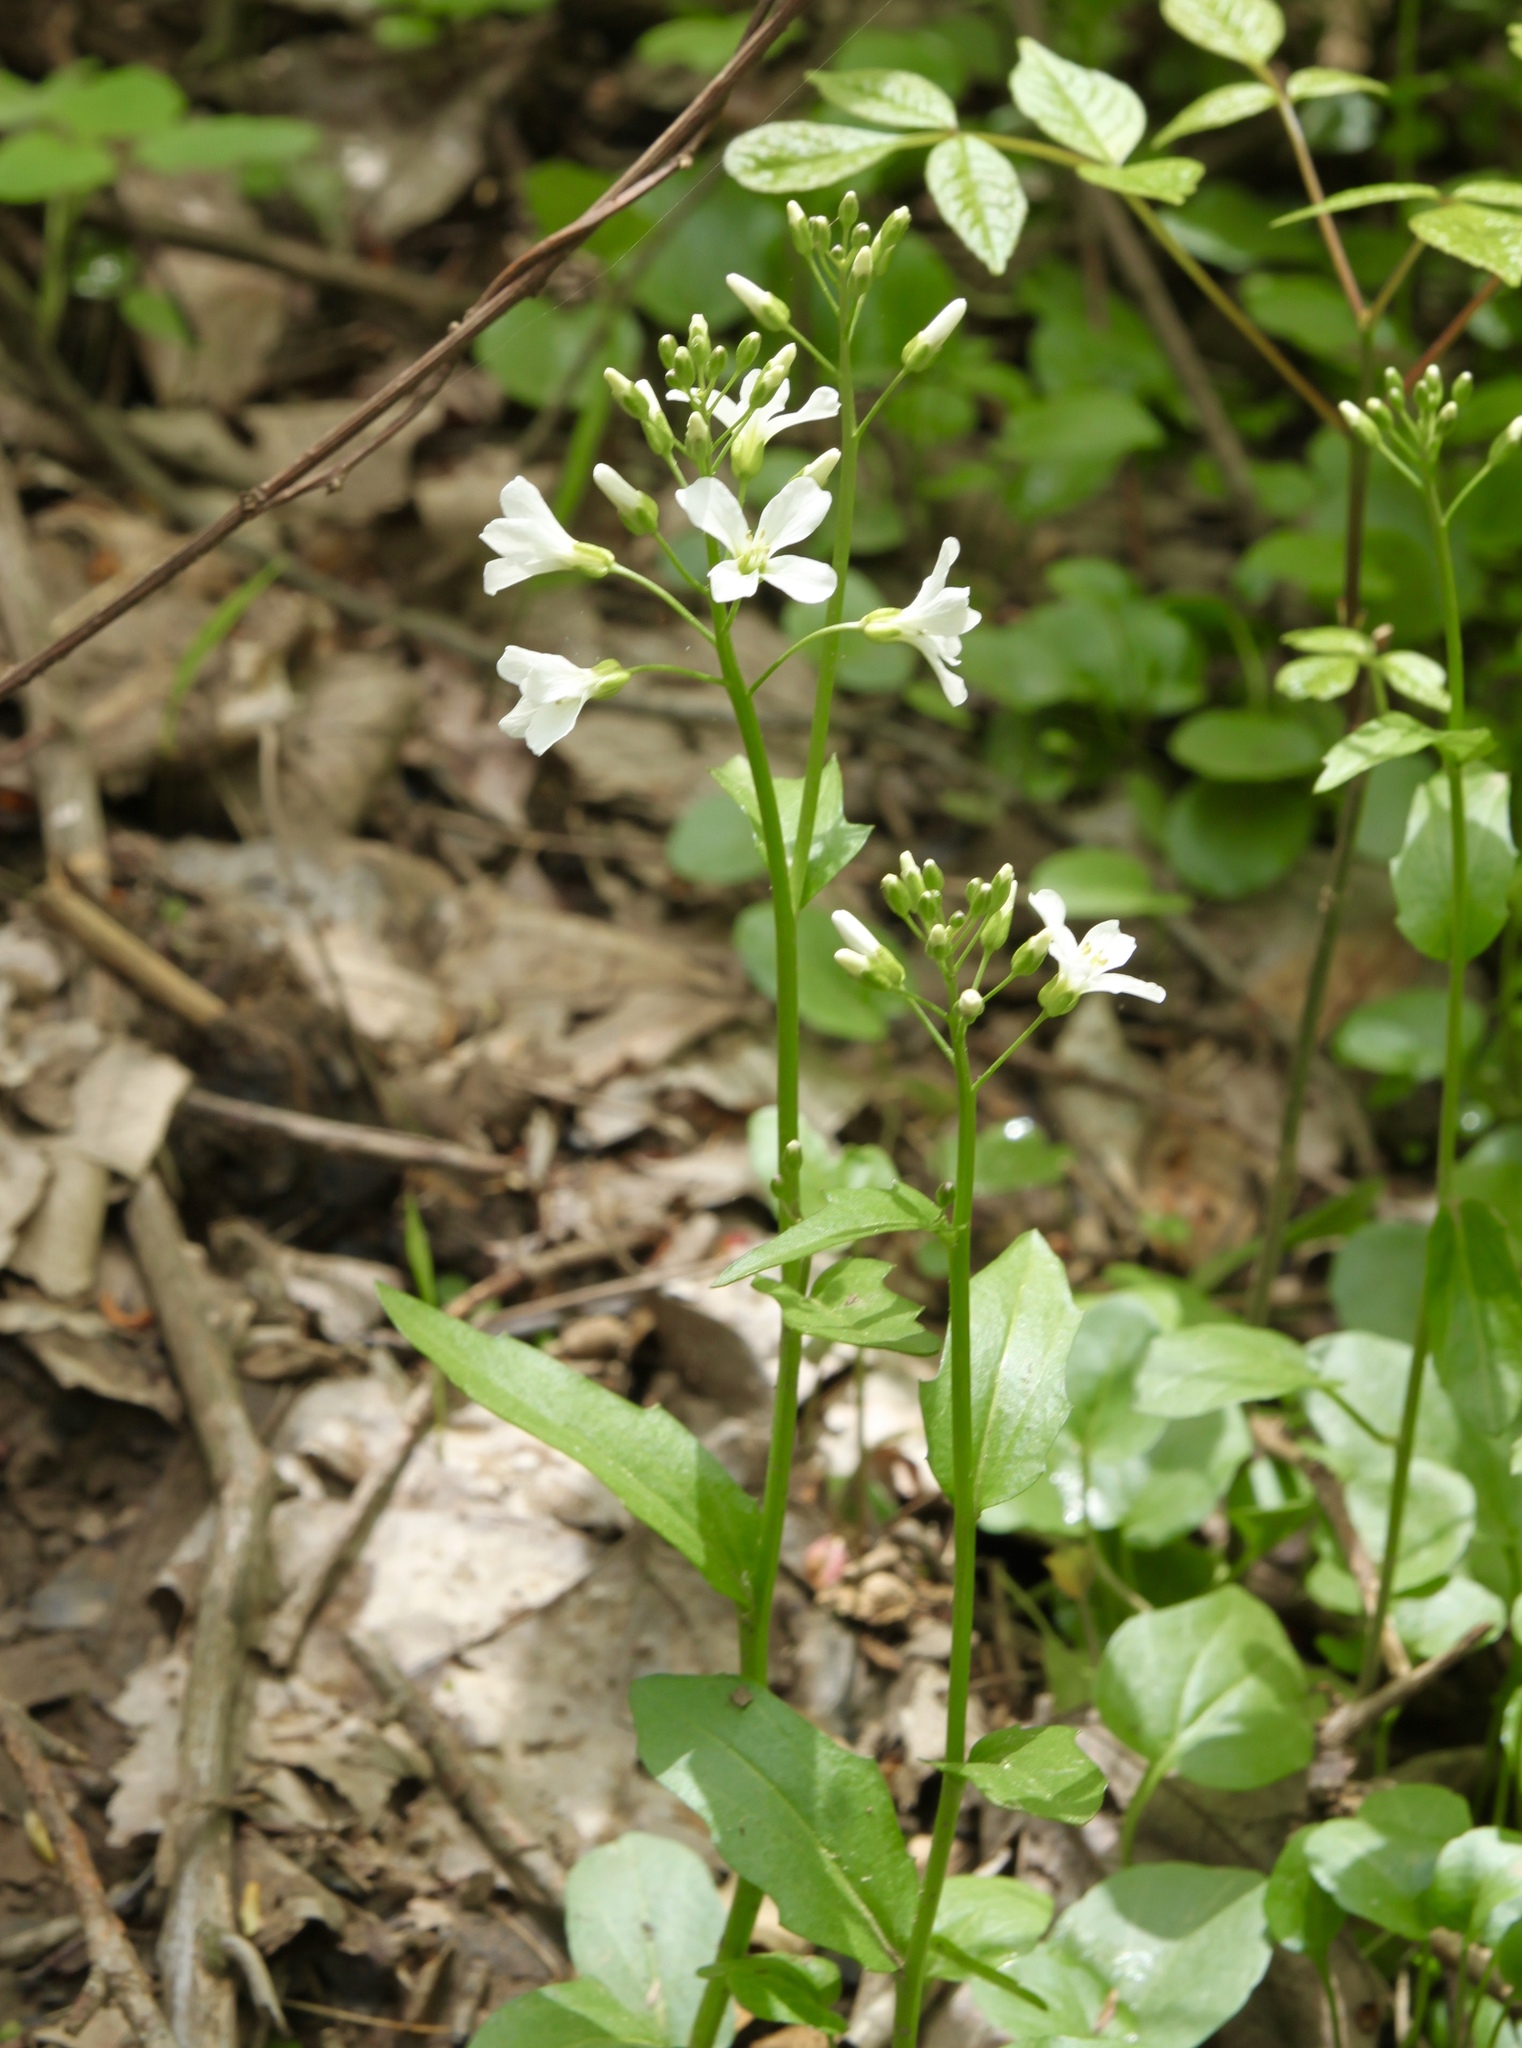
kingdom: Plantae
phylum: Tracheophyta
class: Magnoliopsida
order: Brassicales
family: Brassicaceae
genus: Cardamine
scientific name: Cardamine bulbosa
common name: Spring cress
